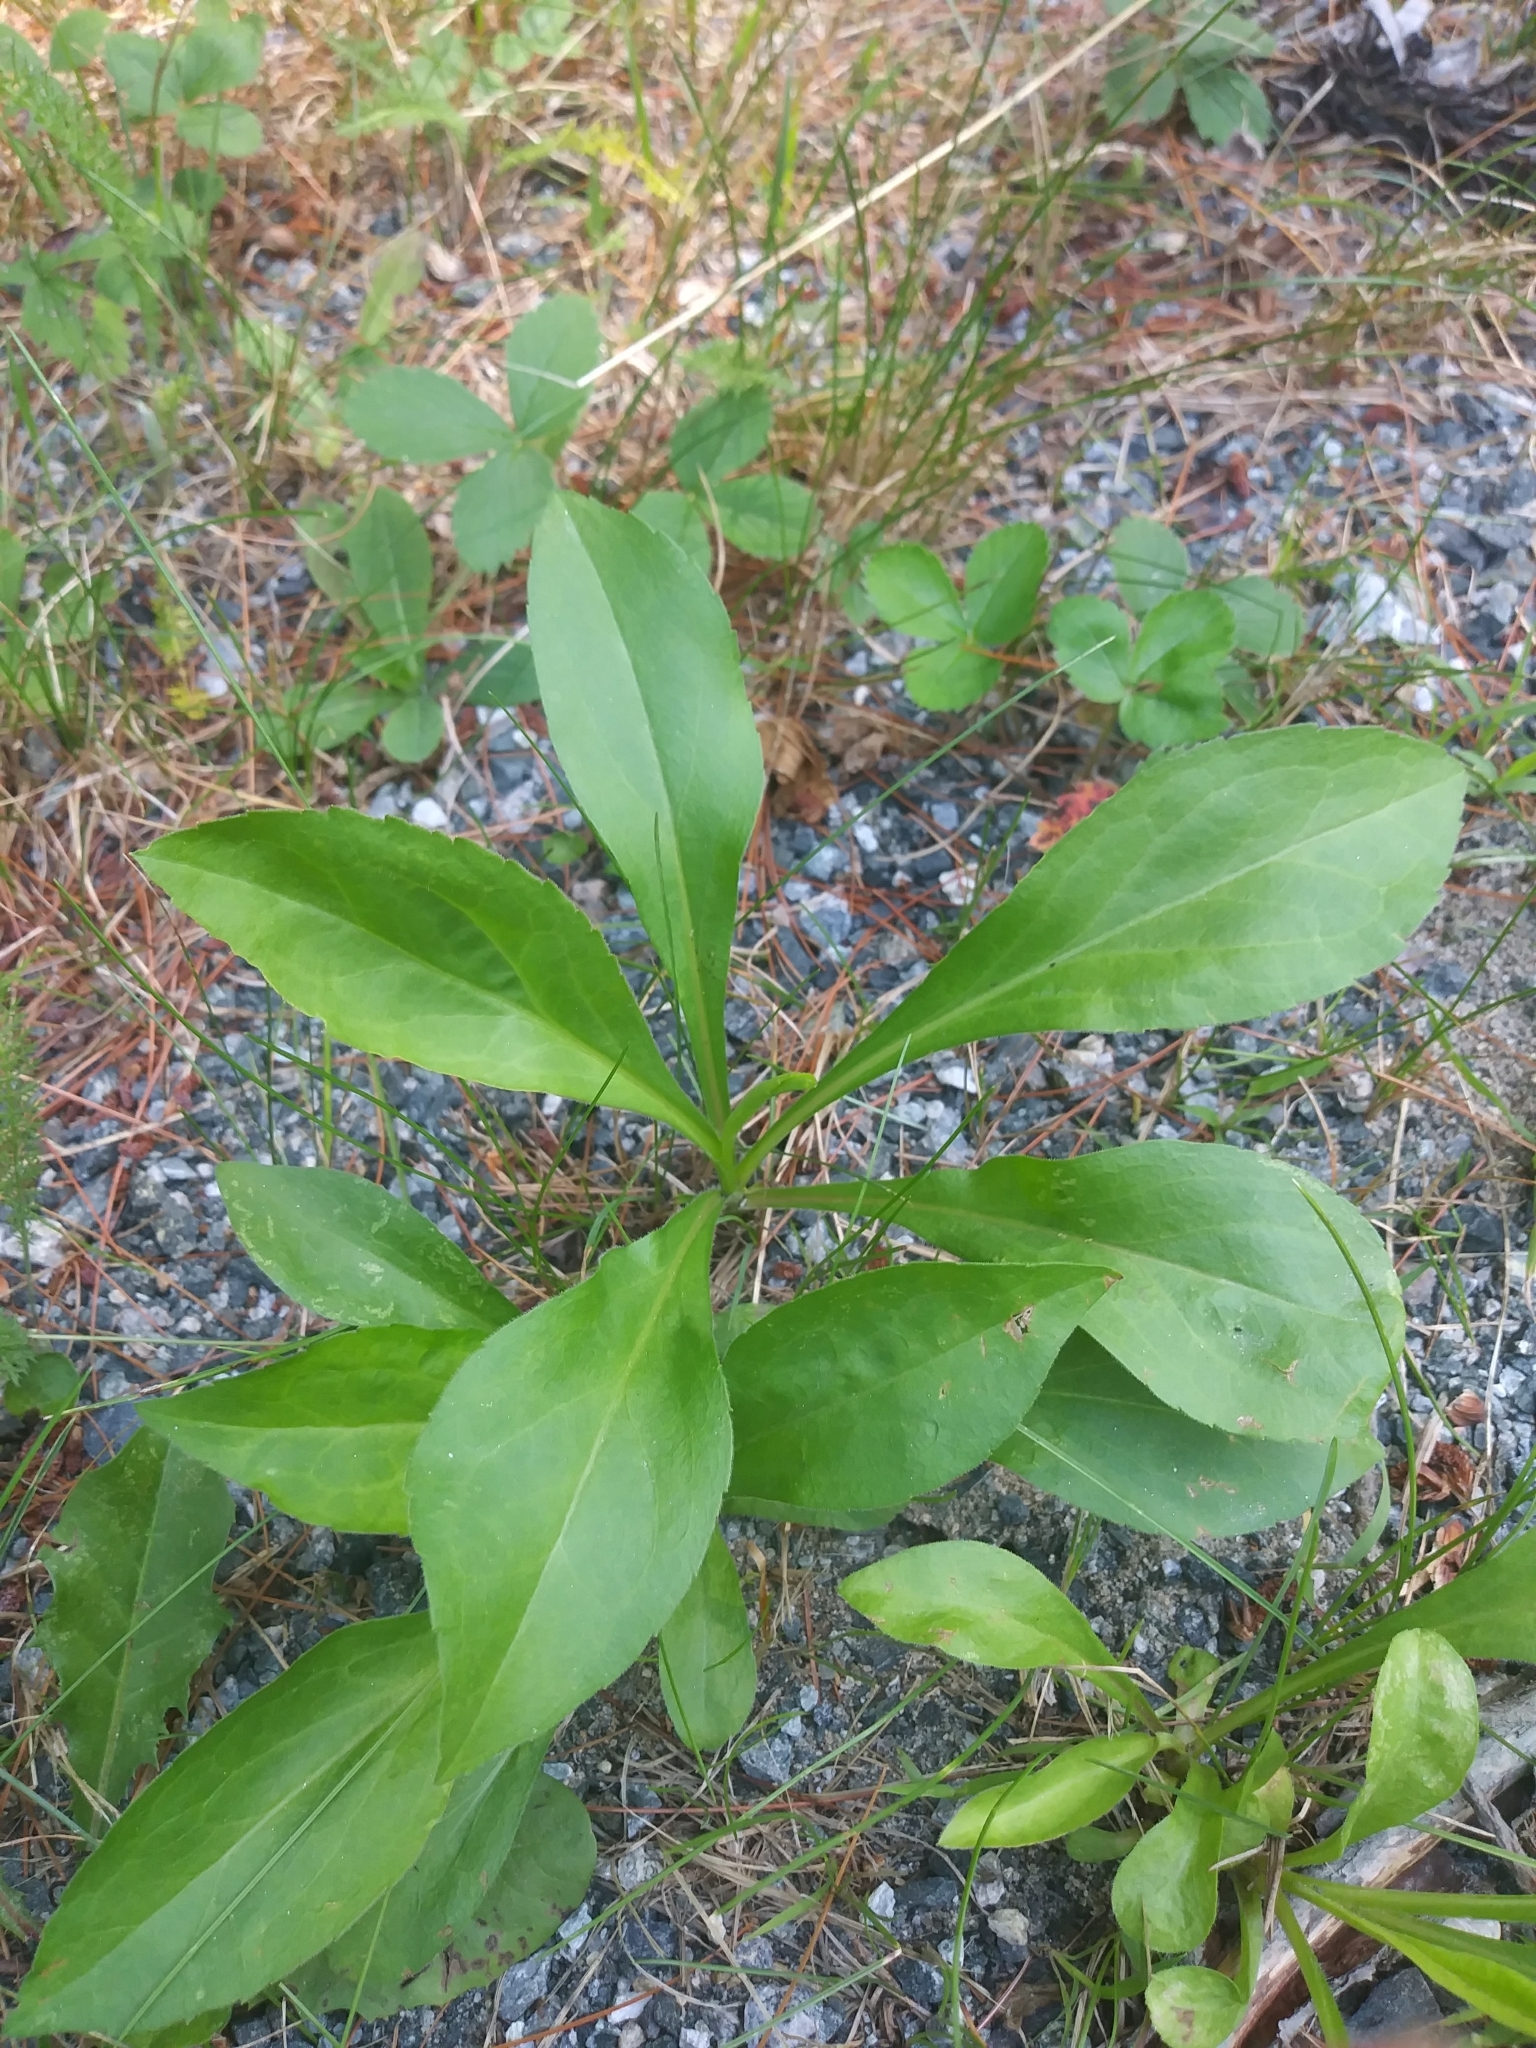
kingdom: Plantae
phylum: Tracheophyta
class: Magnoliopsida
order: Asterales
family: Asteraceae
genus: Solidago
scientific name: Solidago juncea
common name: Early goldenrod
